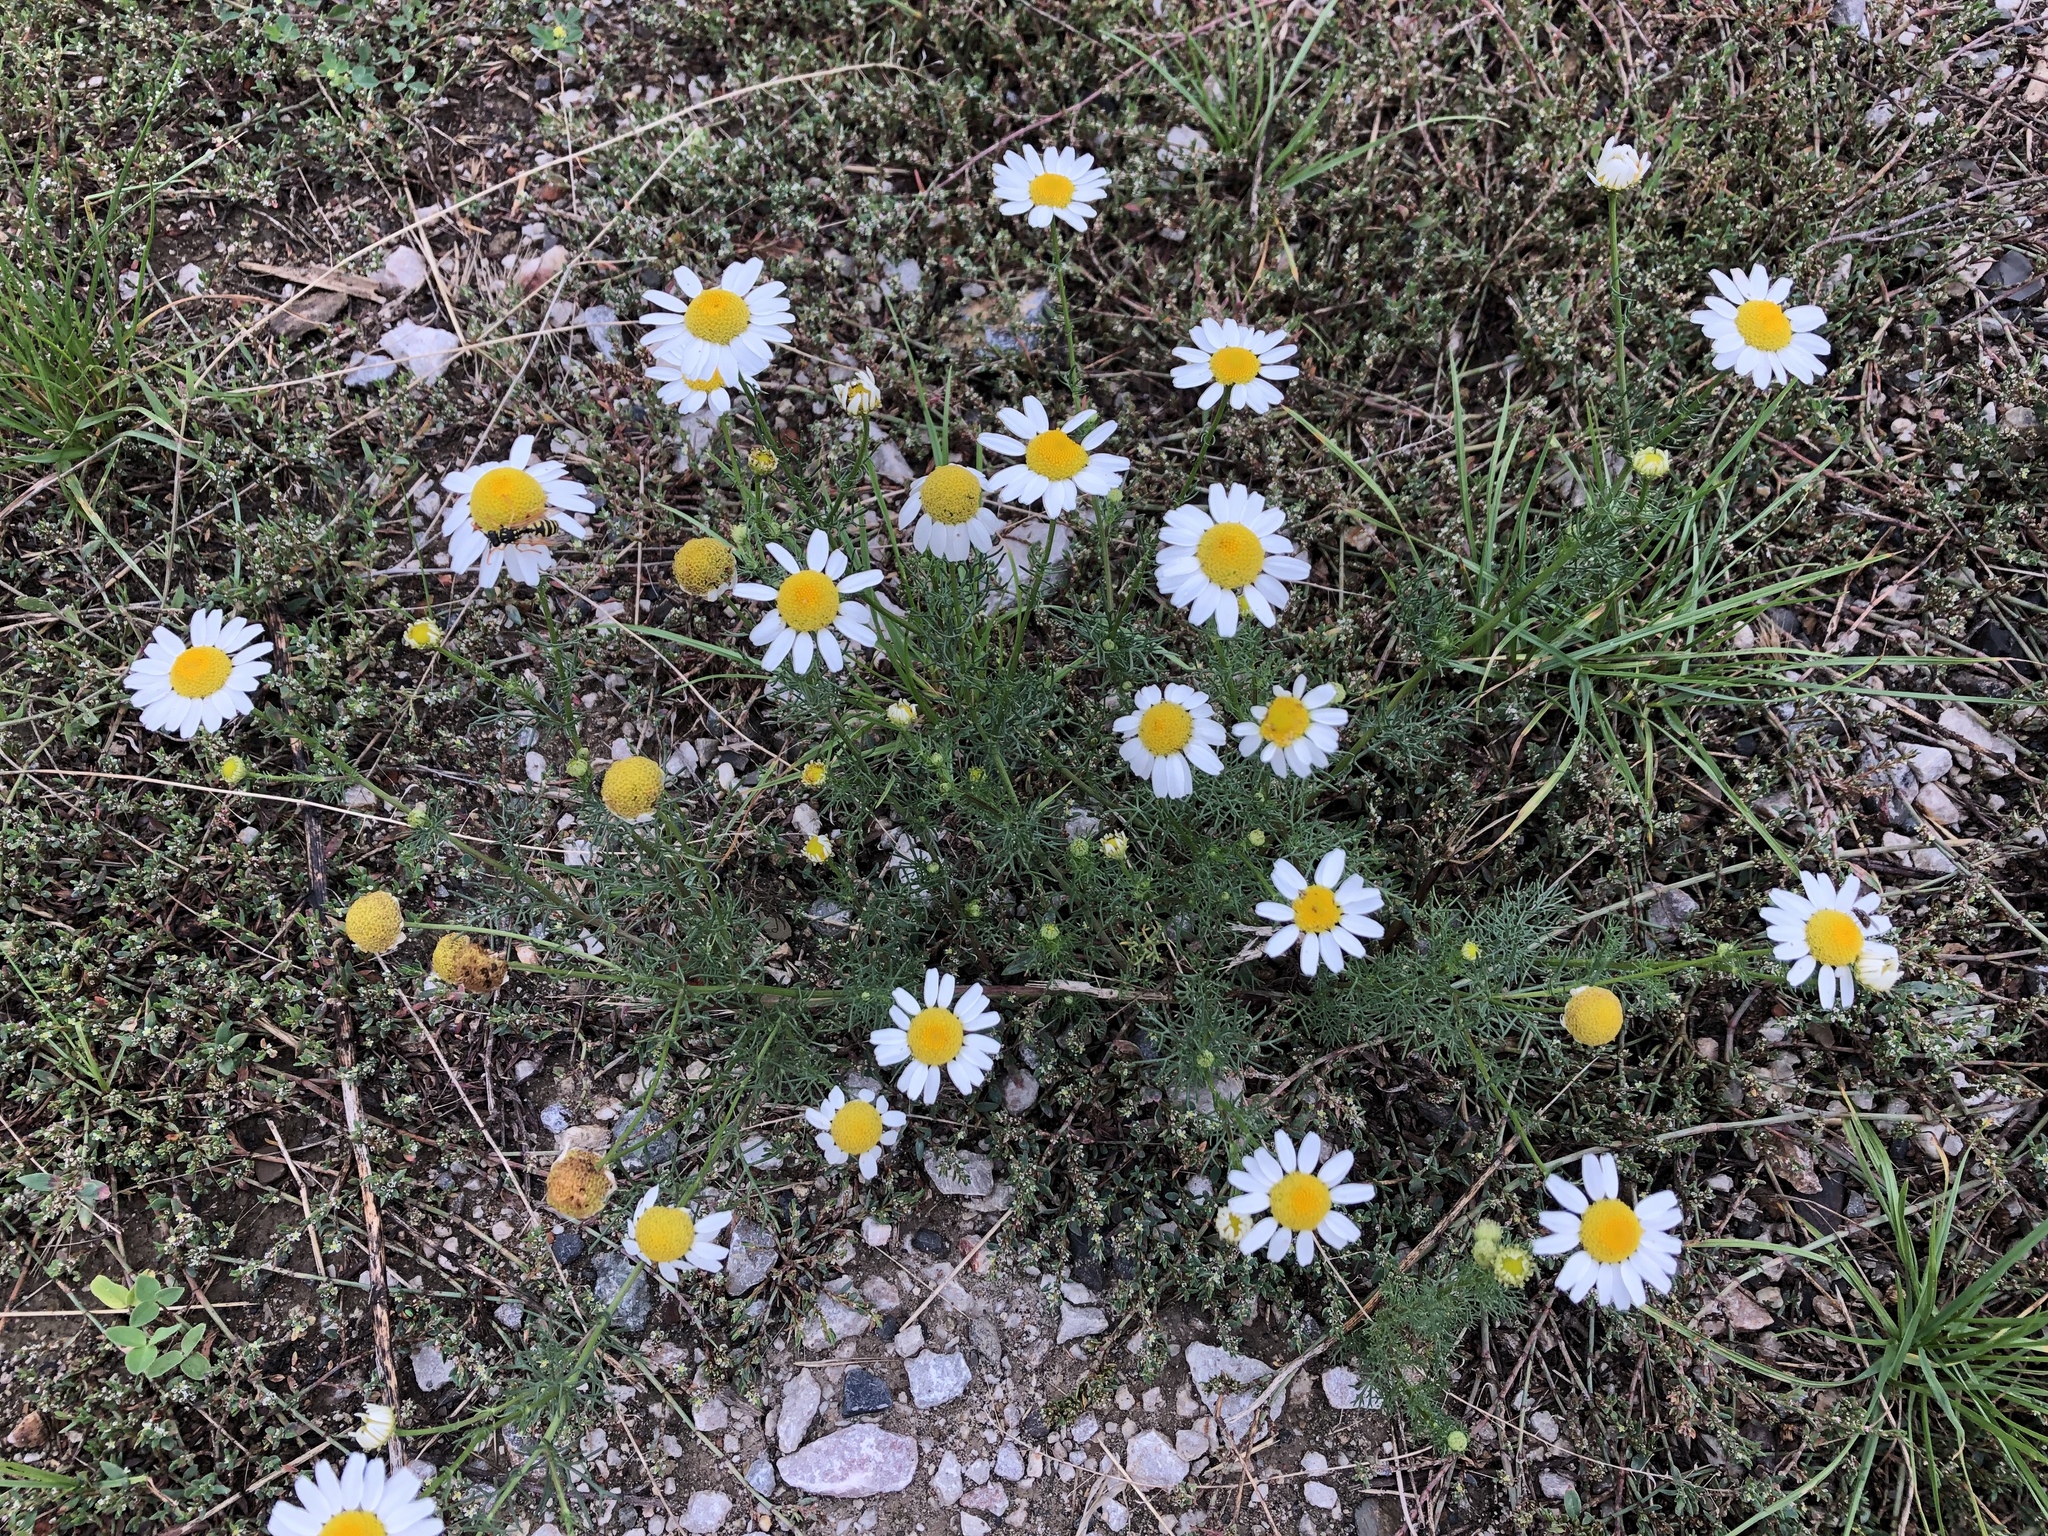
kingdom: Plantae
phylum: Tracheophyta
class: Magnoliopsida
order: Asterales
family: Asteraceae
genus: Tripleurospermum
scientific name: Tripleurospermum inodorum
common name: Scentless mayweed
